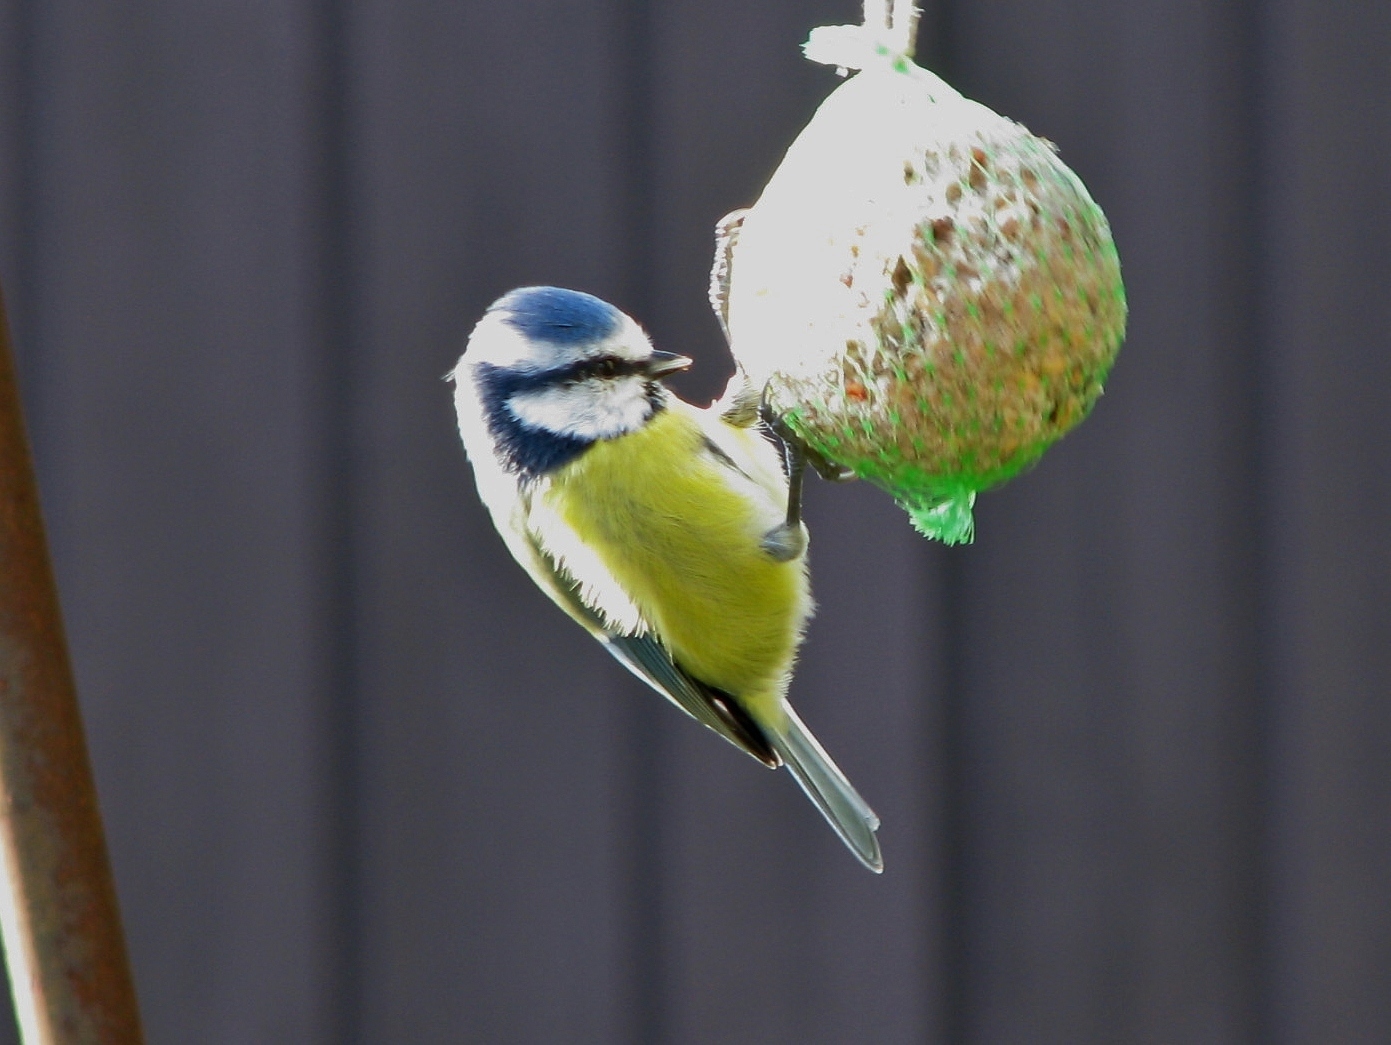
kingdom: Animalia
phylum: Chordata
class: Aves
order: Passeriformes
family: Paridae
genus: Cyanistes
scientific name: Cyanistes caeruleus
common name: Eurasian blue tit
